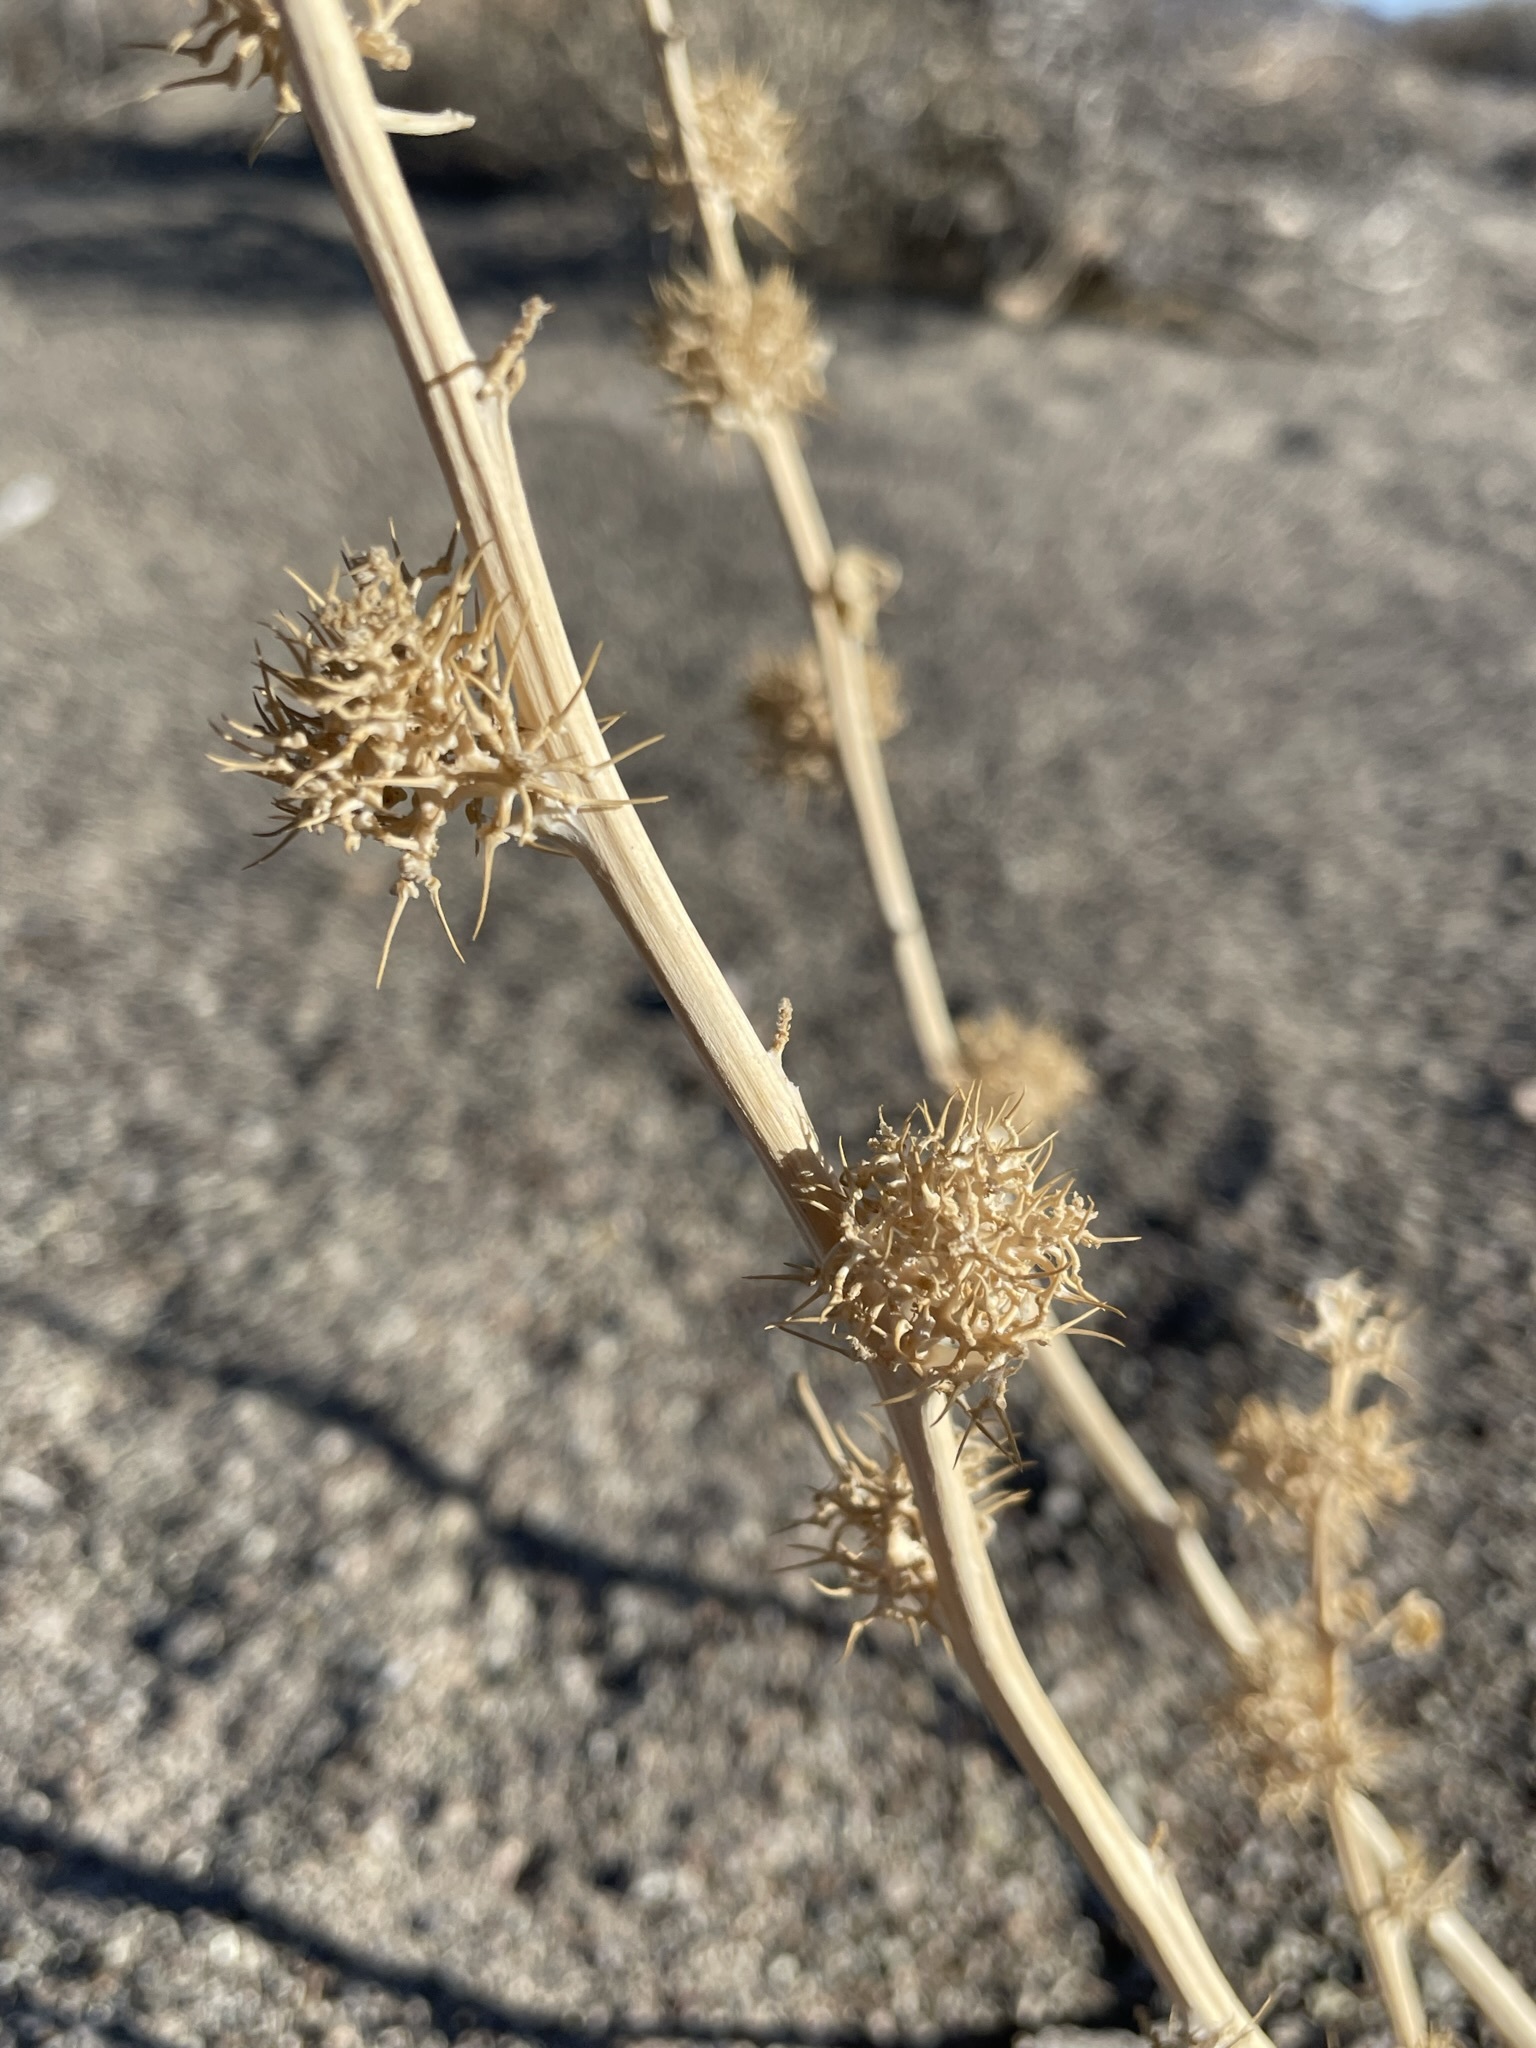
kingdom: Plantae
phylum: Tracheophyta
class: Magnoliopsida
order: Brassicales
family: Cleomaceae
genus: Cleomella
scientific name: Cleomella oxystyloides
